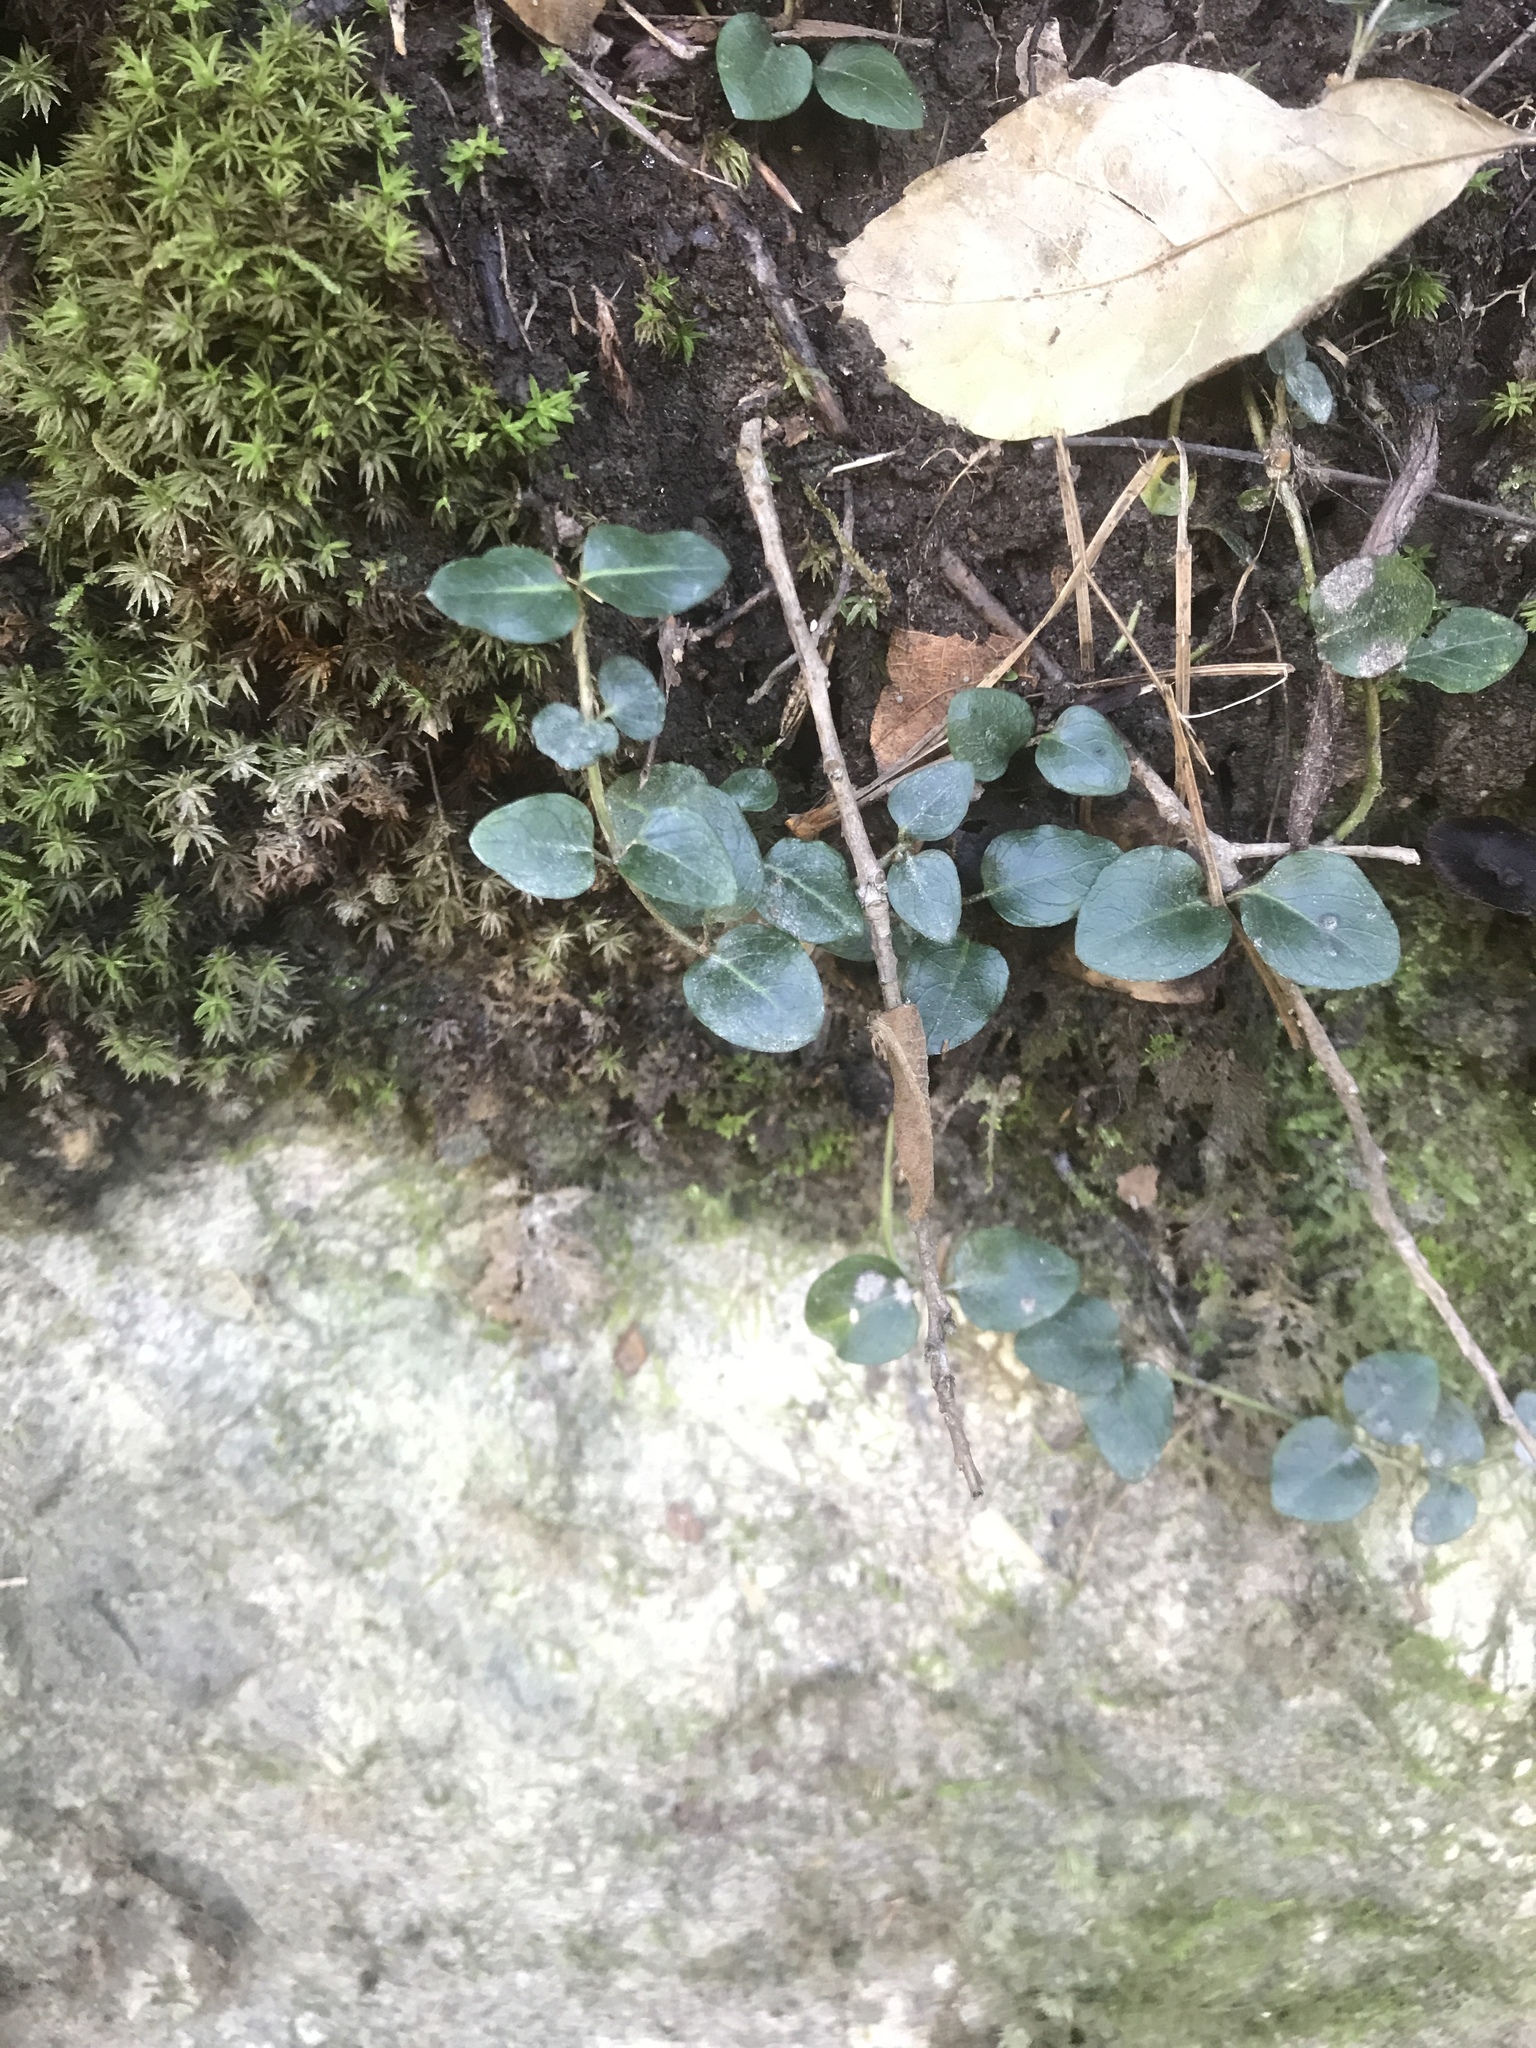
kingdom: Plantae
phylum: Tracheophyta
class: Magnoliopsida
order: Gentianales
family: Rubiaceae
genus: Mitchella
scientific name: Mitchella repens
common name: Partridge-berry
